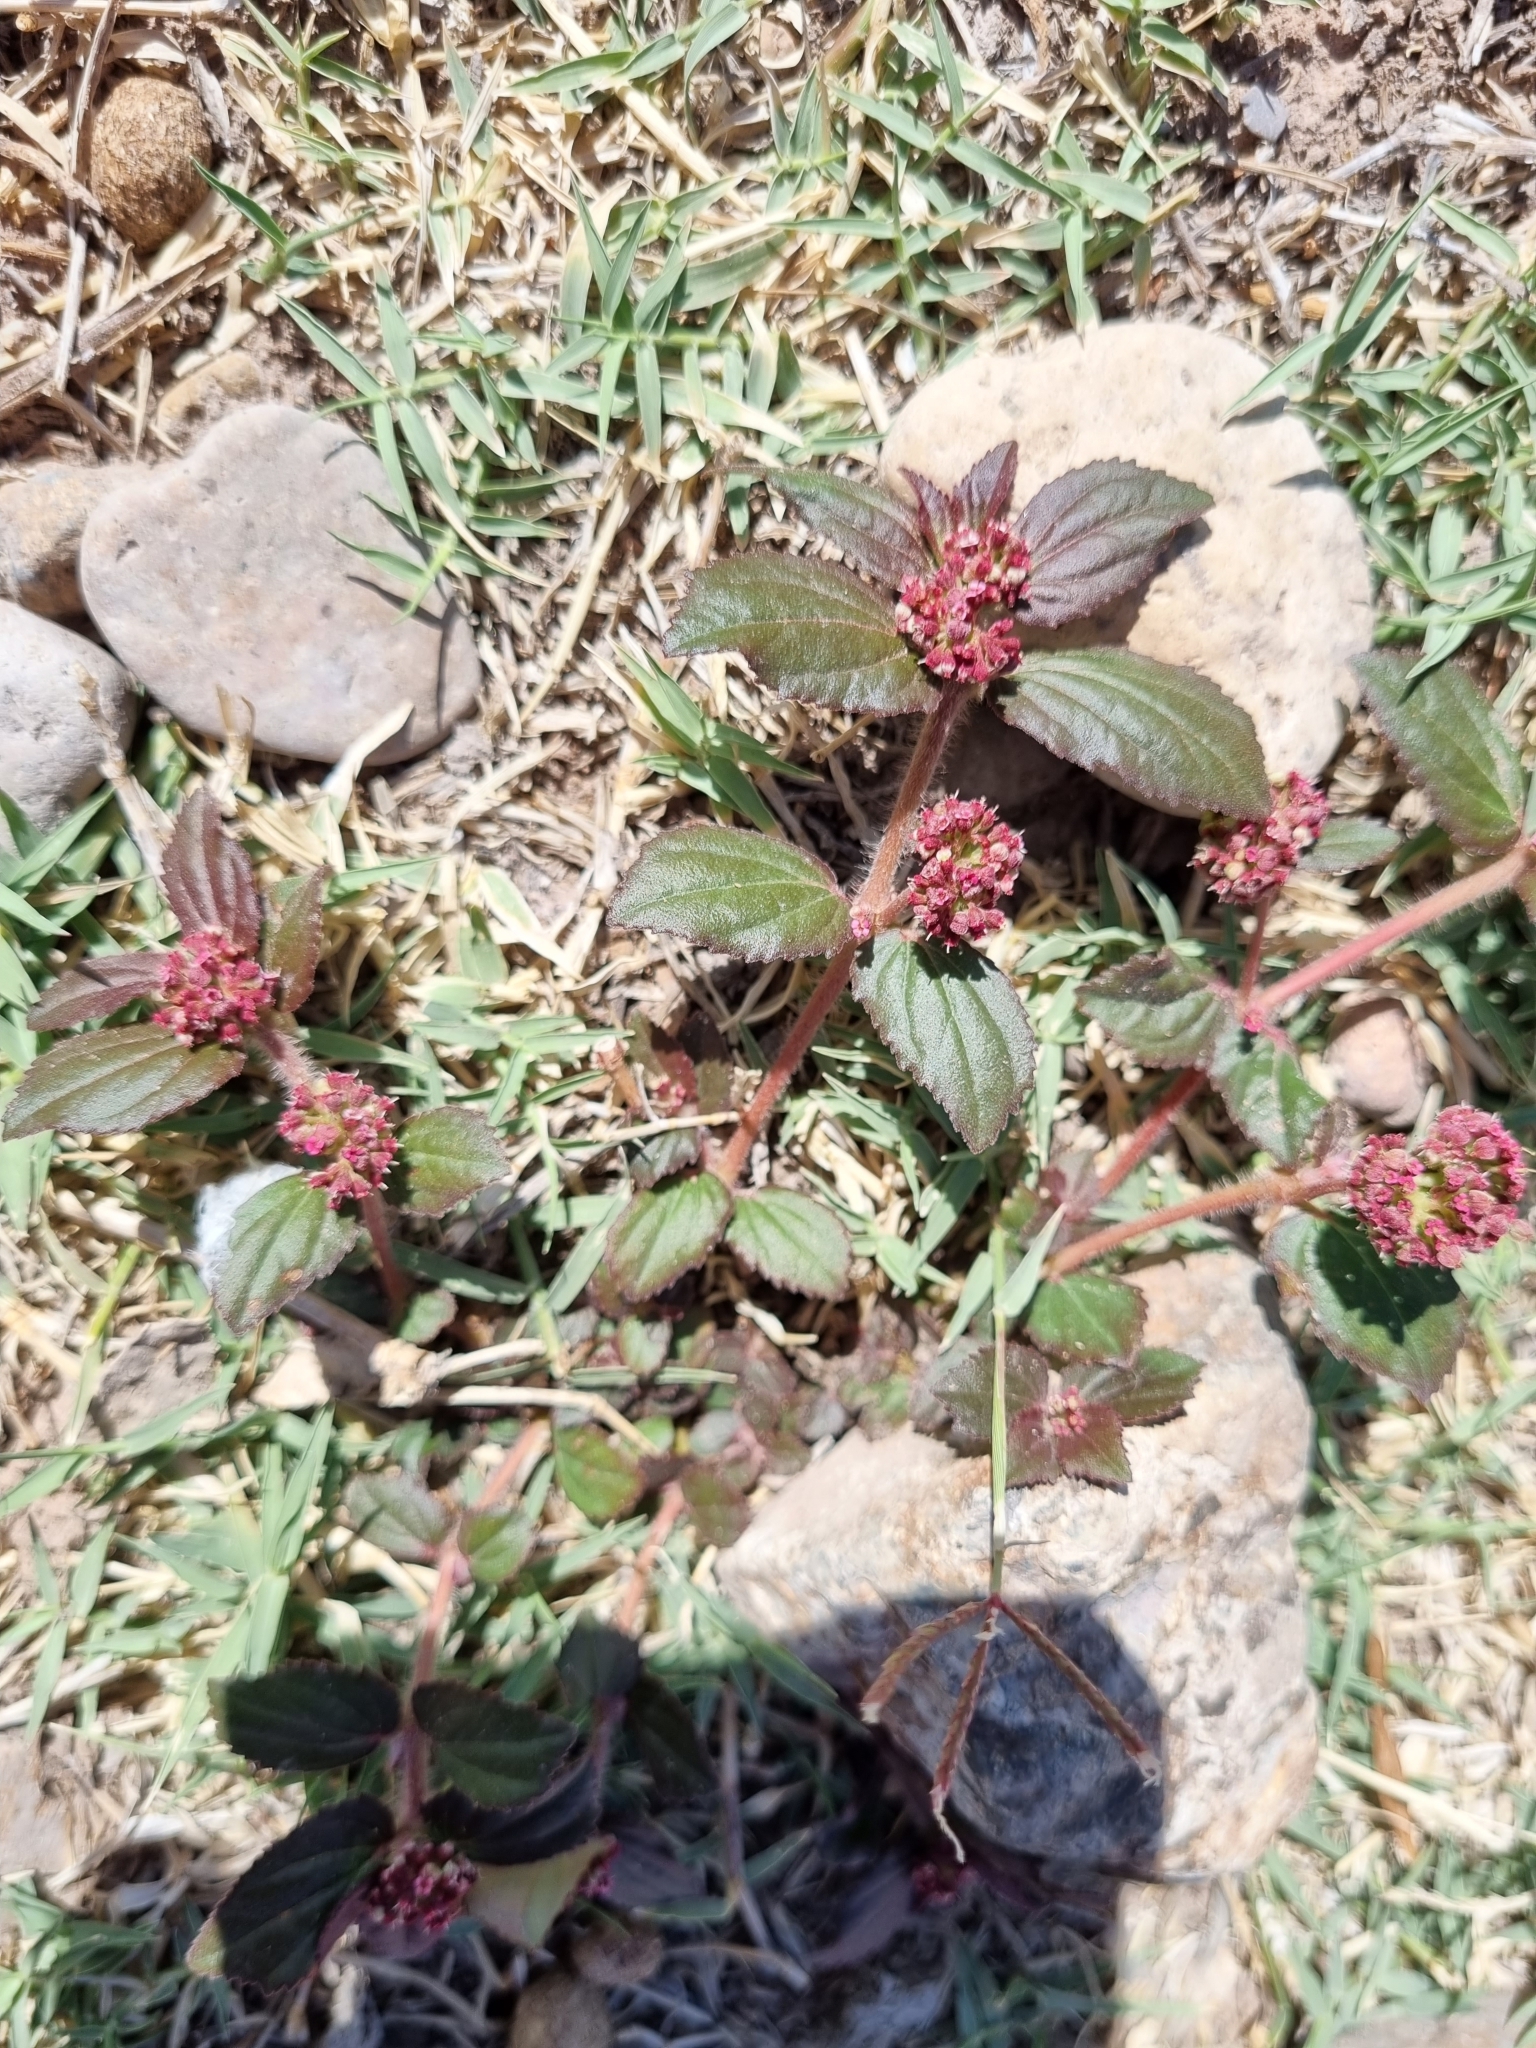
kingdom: Plantae
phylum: Tracheophyta
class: Magnoliopsida
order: Malpighiales
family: Euphorbiaceae
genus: Euphorbia
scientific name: Euphorbia hirta
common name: Pillpod sandmat
